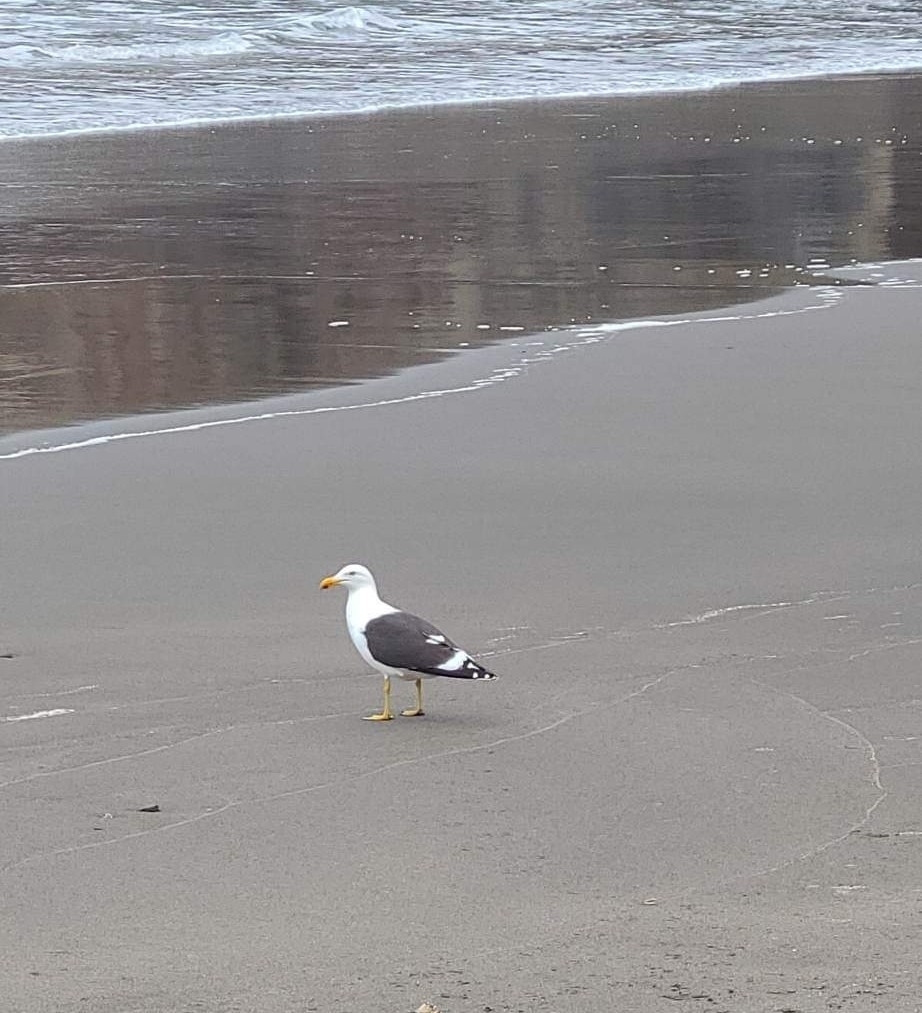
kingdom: Animalia
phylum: Chordata
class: Aves
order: Charadriiformes
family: Laridae
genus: Larus
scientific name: Larus dominicanus
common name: Kelp gull
